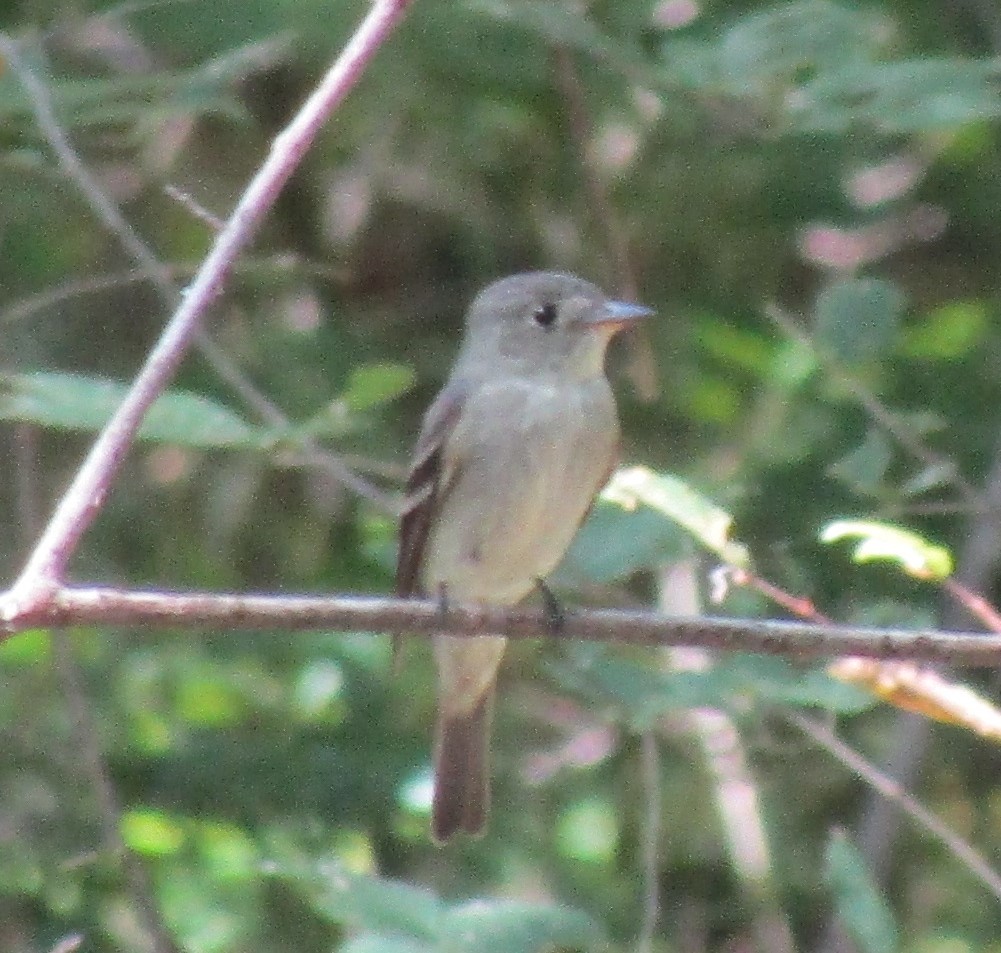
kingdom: Animalia
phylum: Chordata
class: Aves
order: Passeriformes
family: Tyrannidae
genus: Contopus
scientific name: Contopus virens
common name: Eastern wood-pewee
